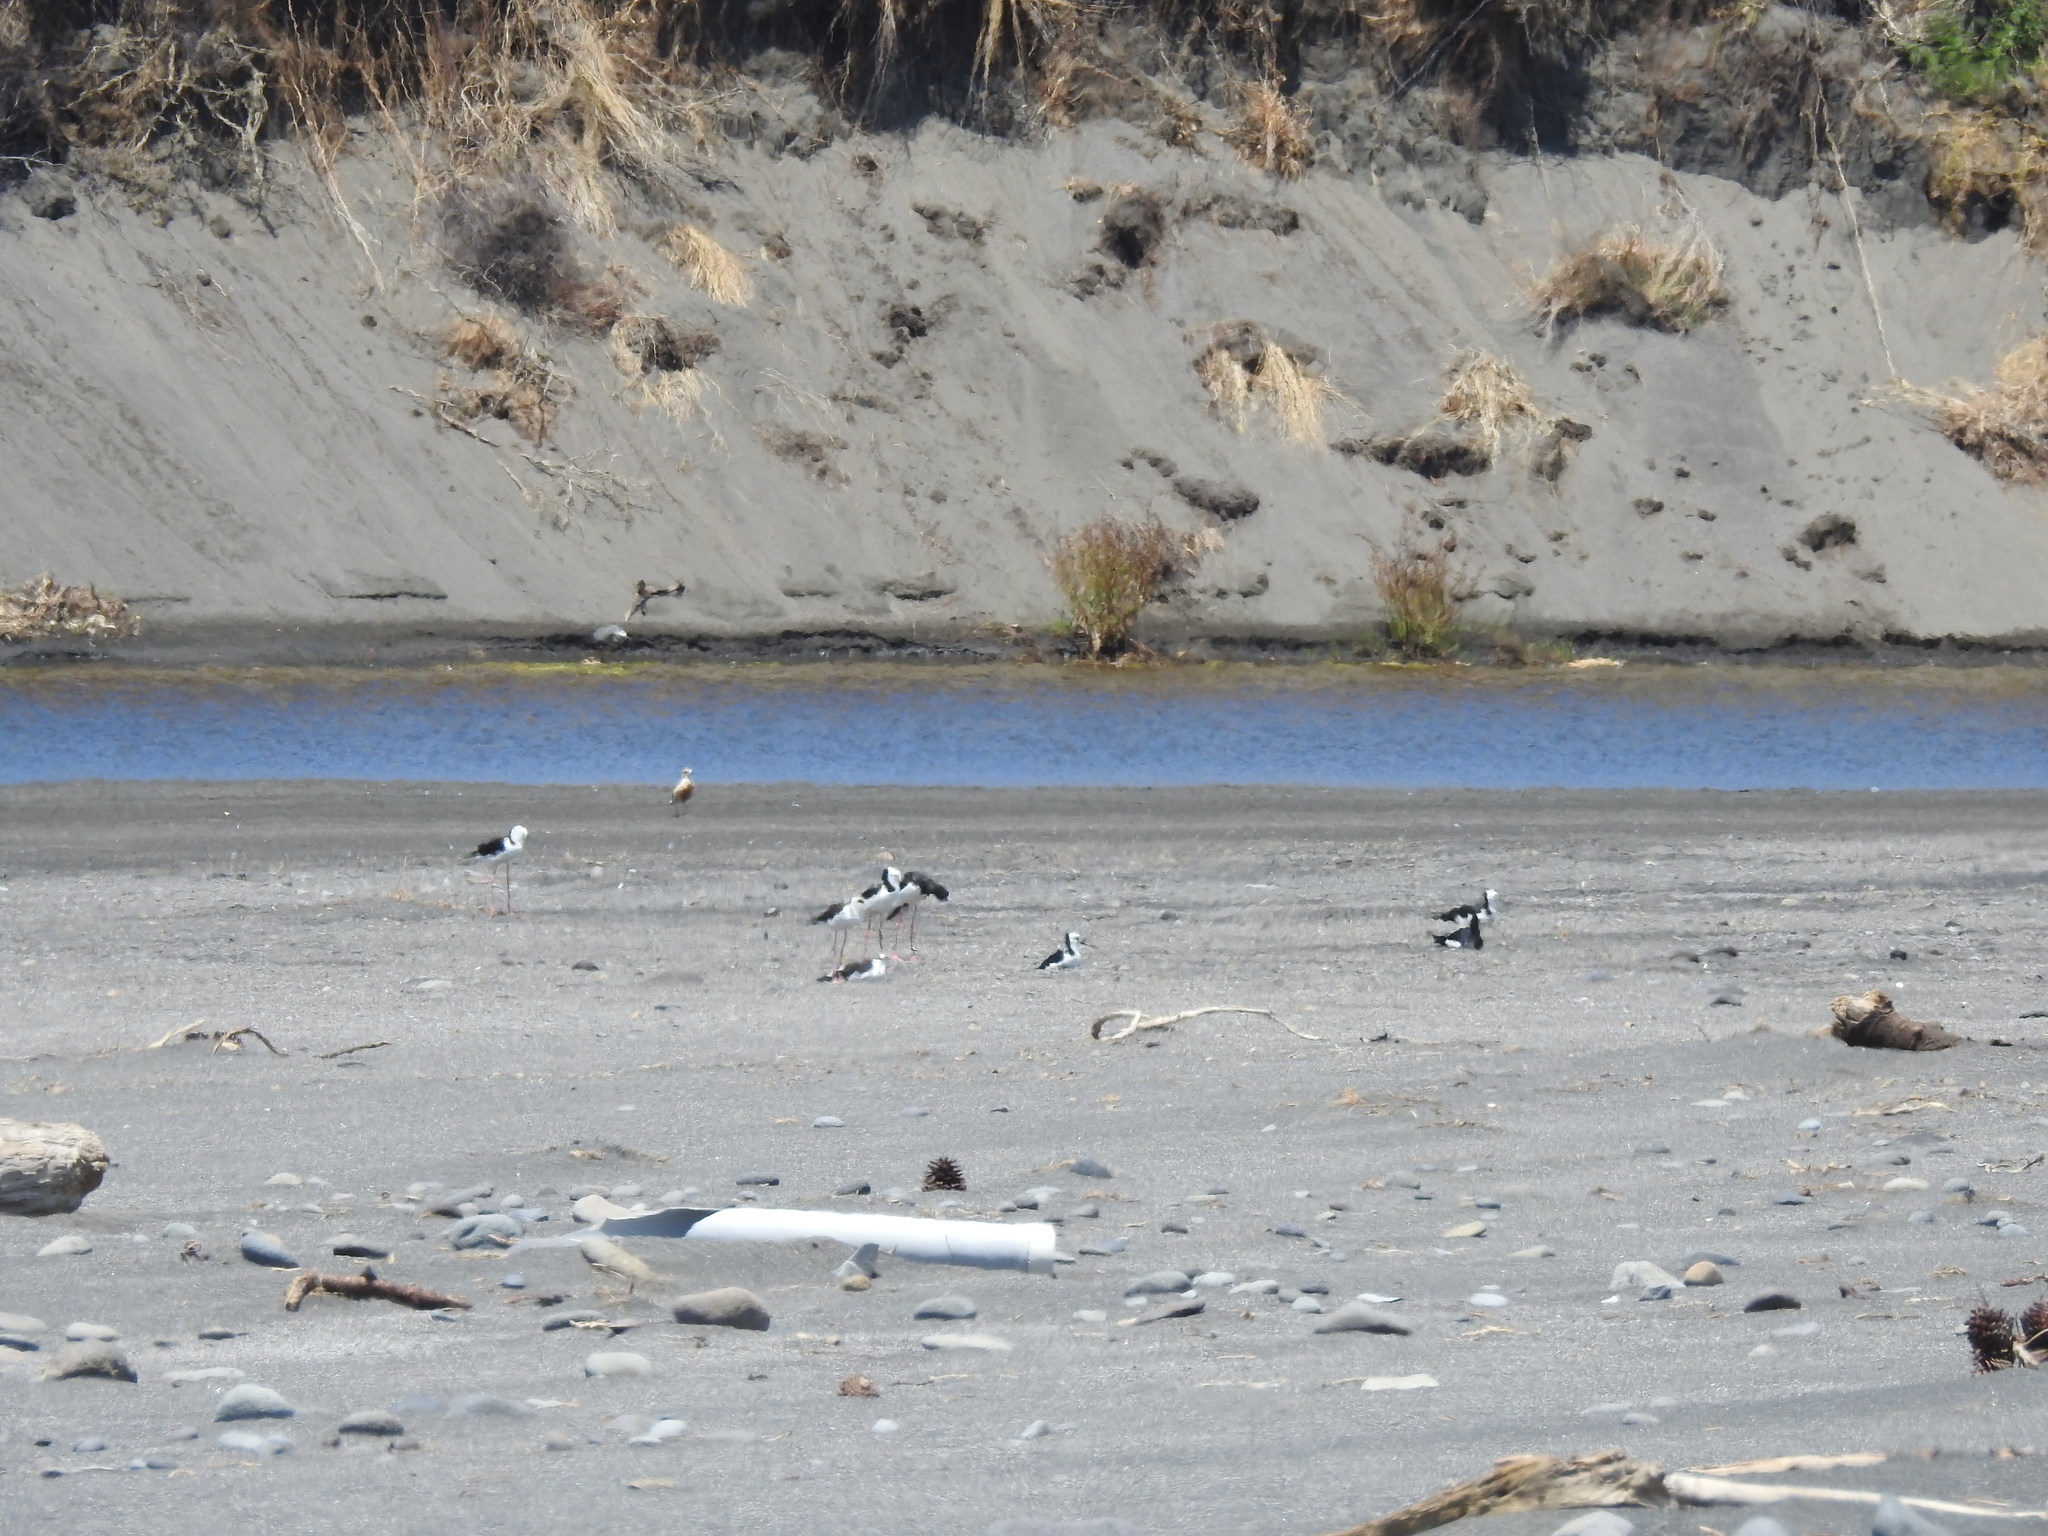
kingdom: Animalia
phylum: Chordata
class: Aves
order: Charadriiformes
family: Recurvirostridae
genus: Himantopus
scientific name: Himantopus leucocephalus
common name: White-headed stilt
